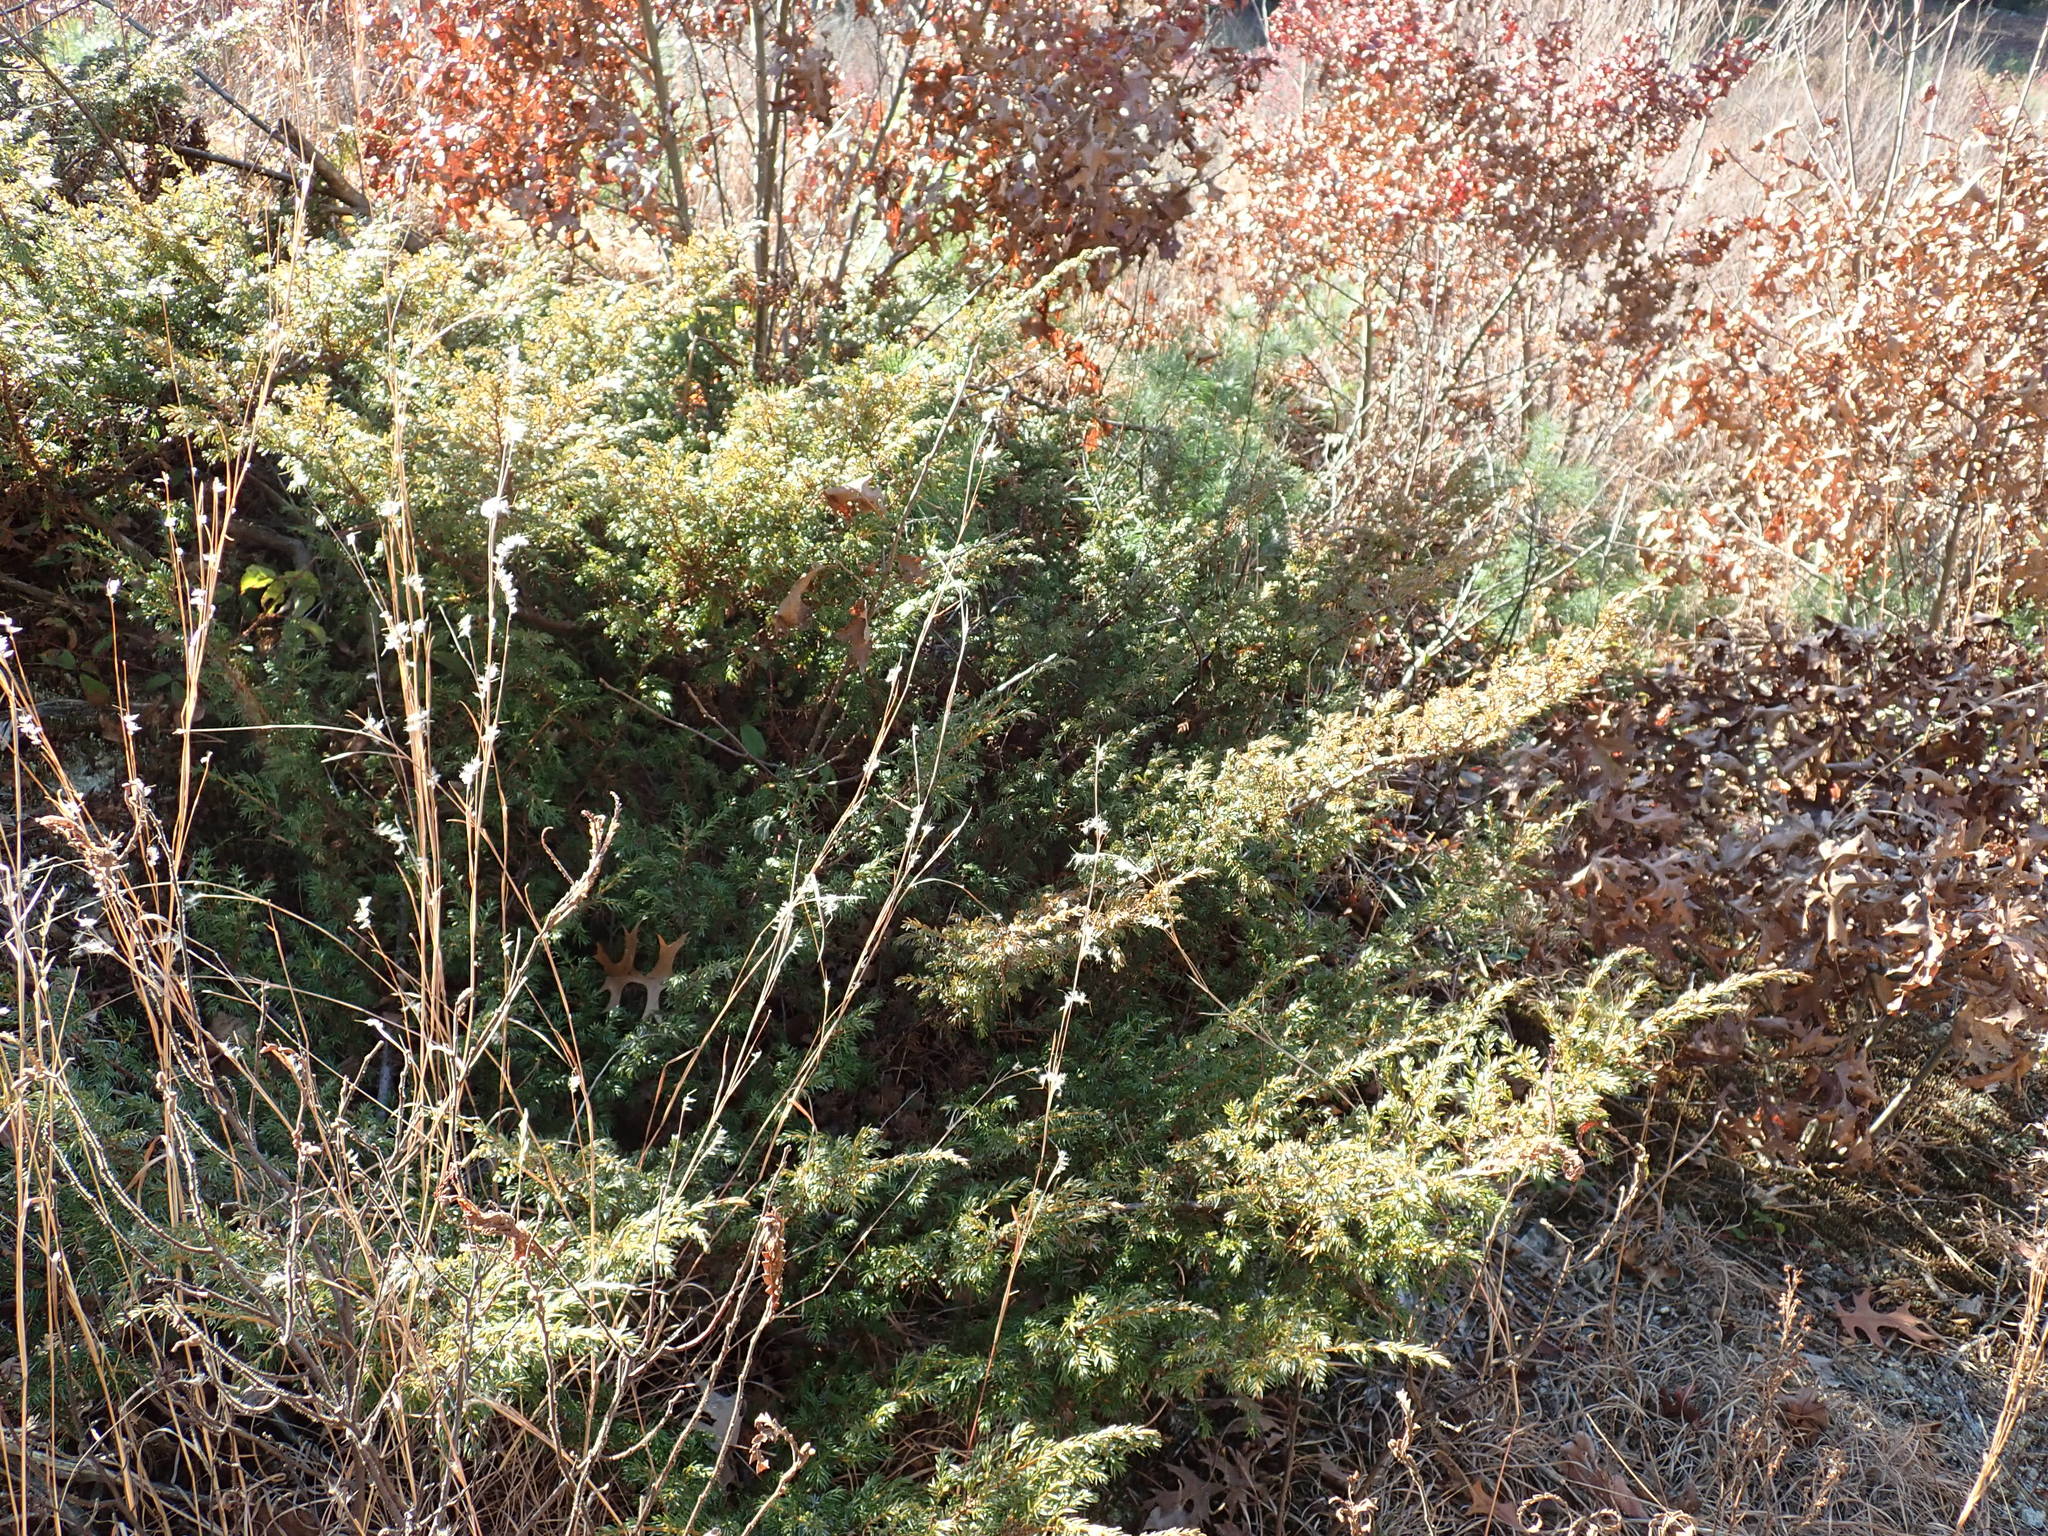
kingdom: Plantae
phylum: Tracheophyta
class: Pinopsida
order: Pinales
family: Cupressaceae
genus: Juniperus
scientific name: Juniperus communis
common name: Common juniper
